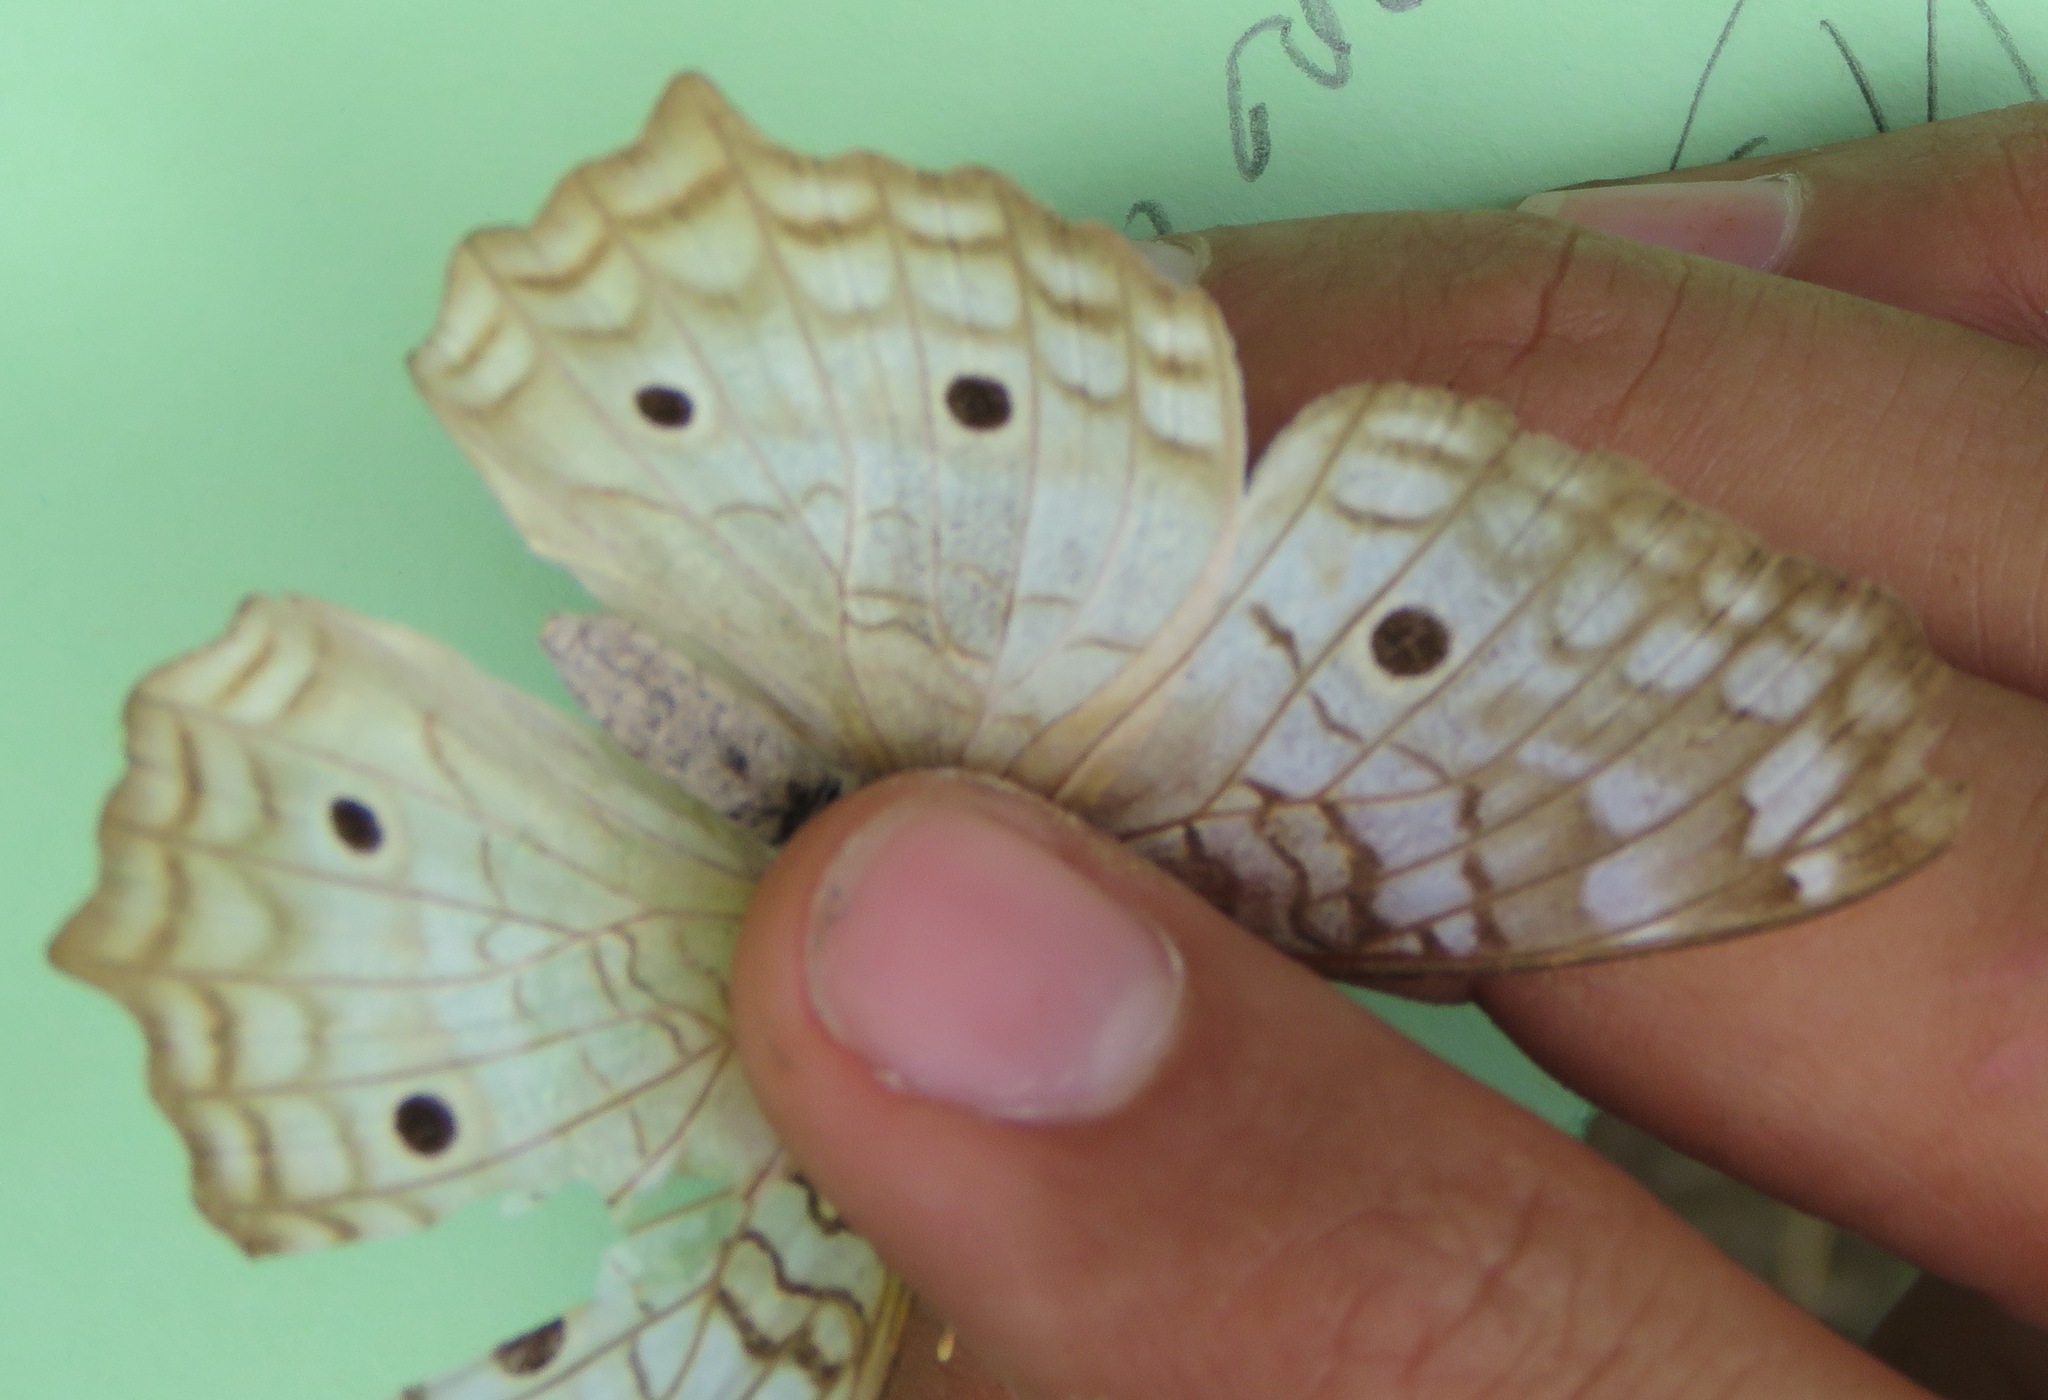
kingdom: Animalia
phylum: Arthropoda
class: Insecta
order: Lepidoptera
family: Nymphalidae
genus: Anartia
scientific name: Anartia jatrophae
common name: White peacock
